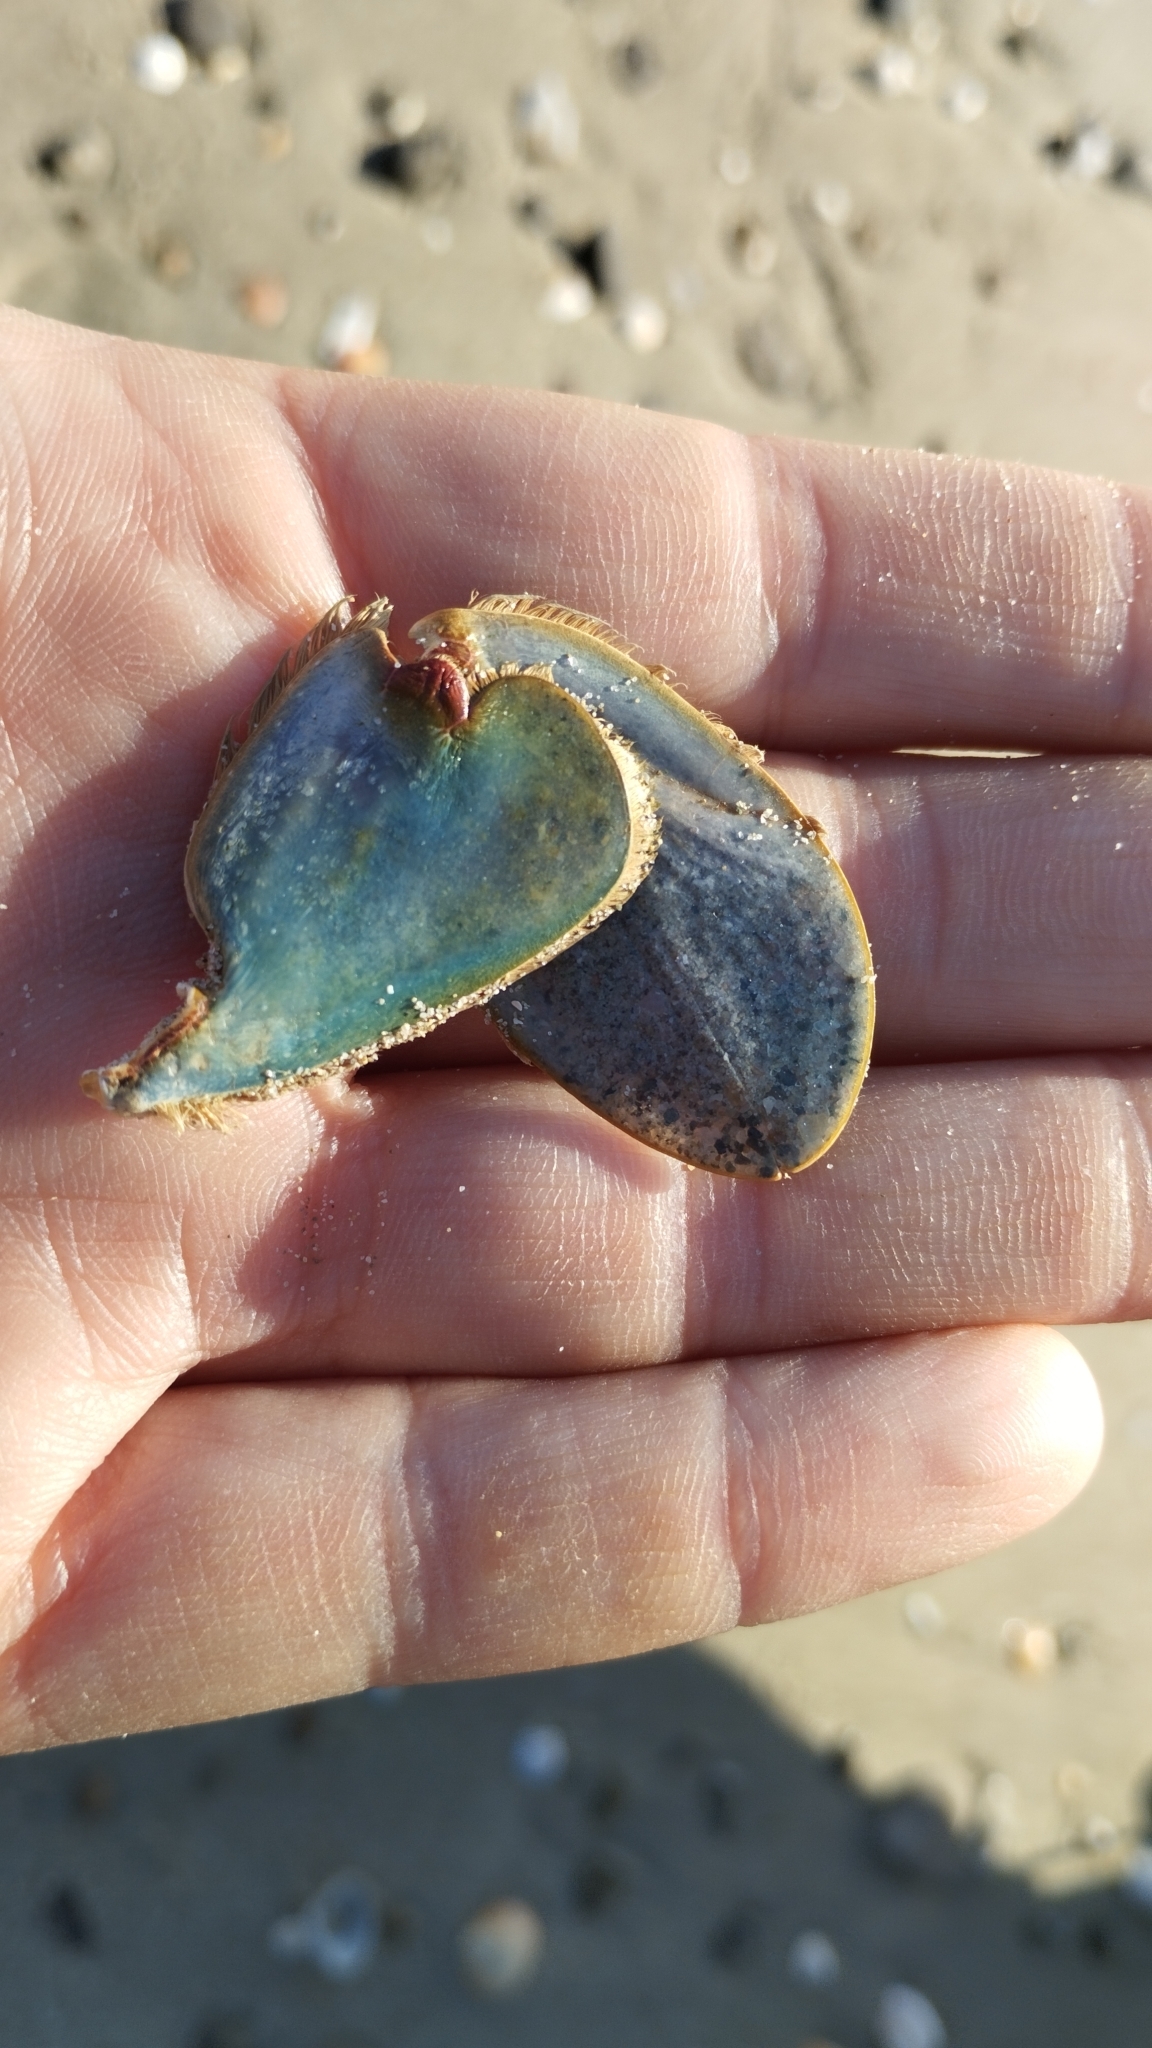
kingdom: Animalia
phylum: Arthropoda
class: Malacostraca
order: Decapoda
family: Portunidae
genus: Callinectes
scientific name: Callinectes sapidus
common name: Blue crab
